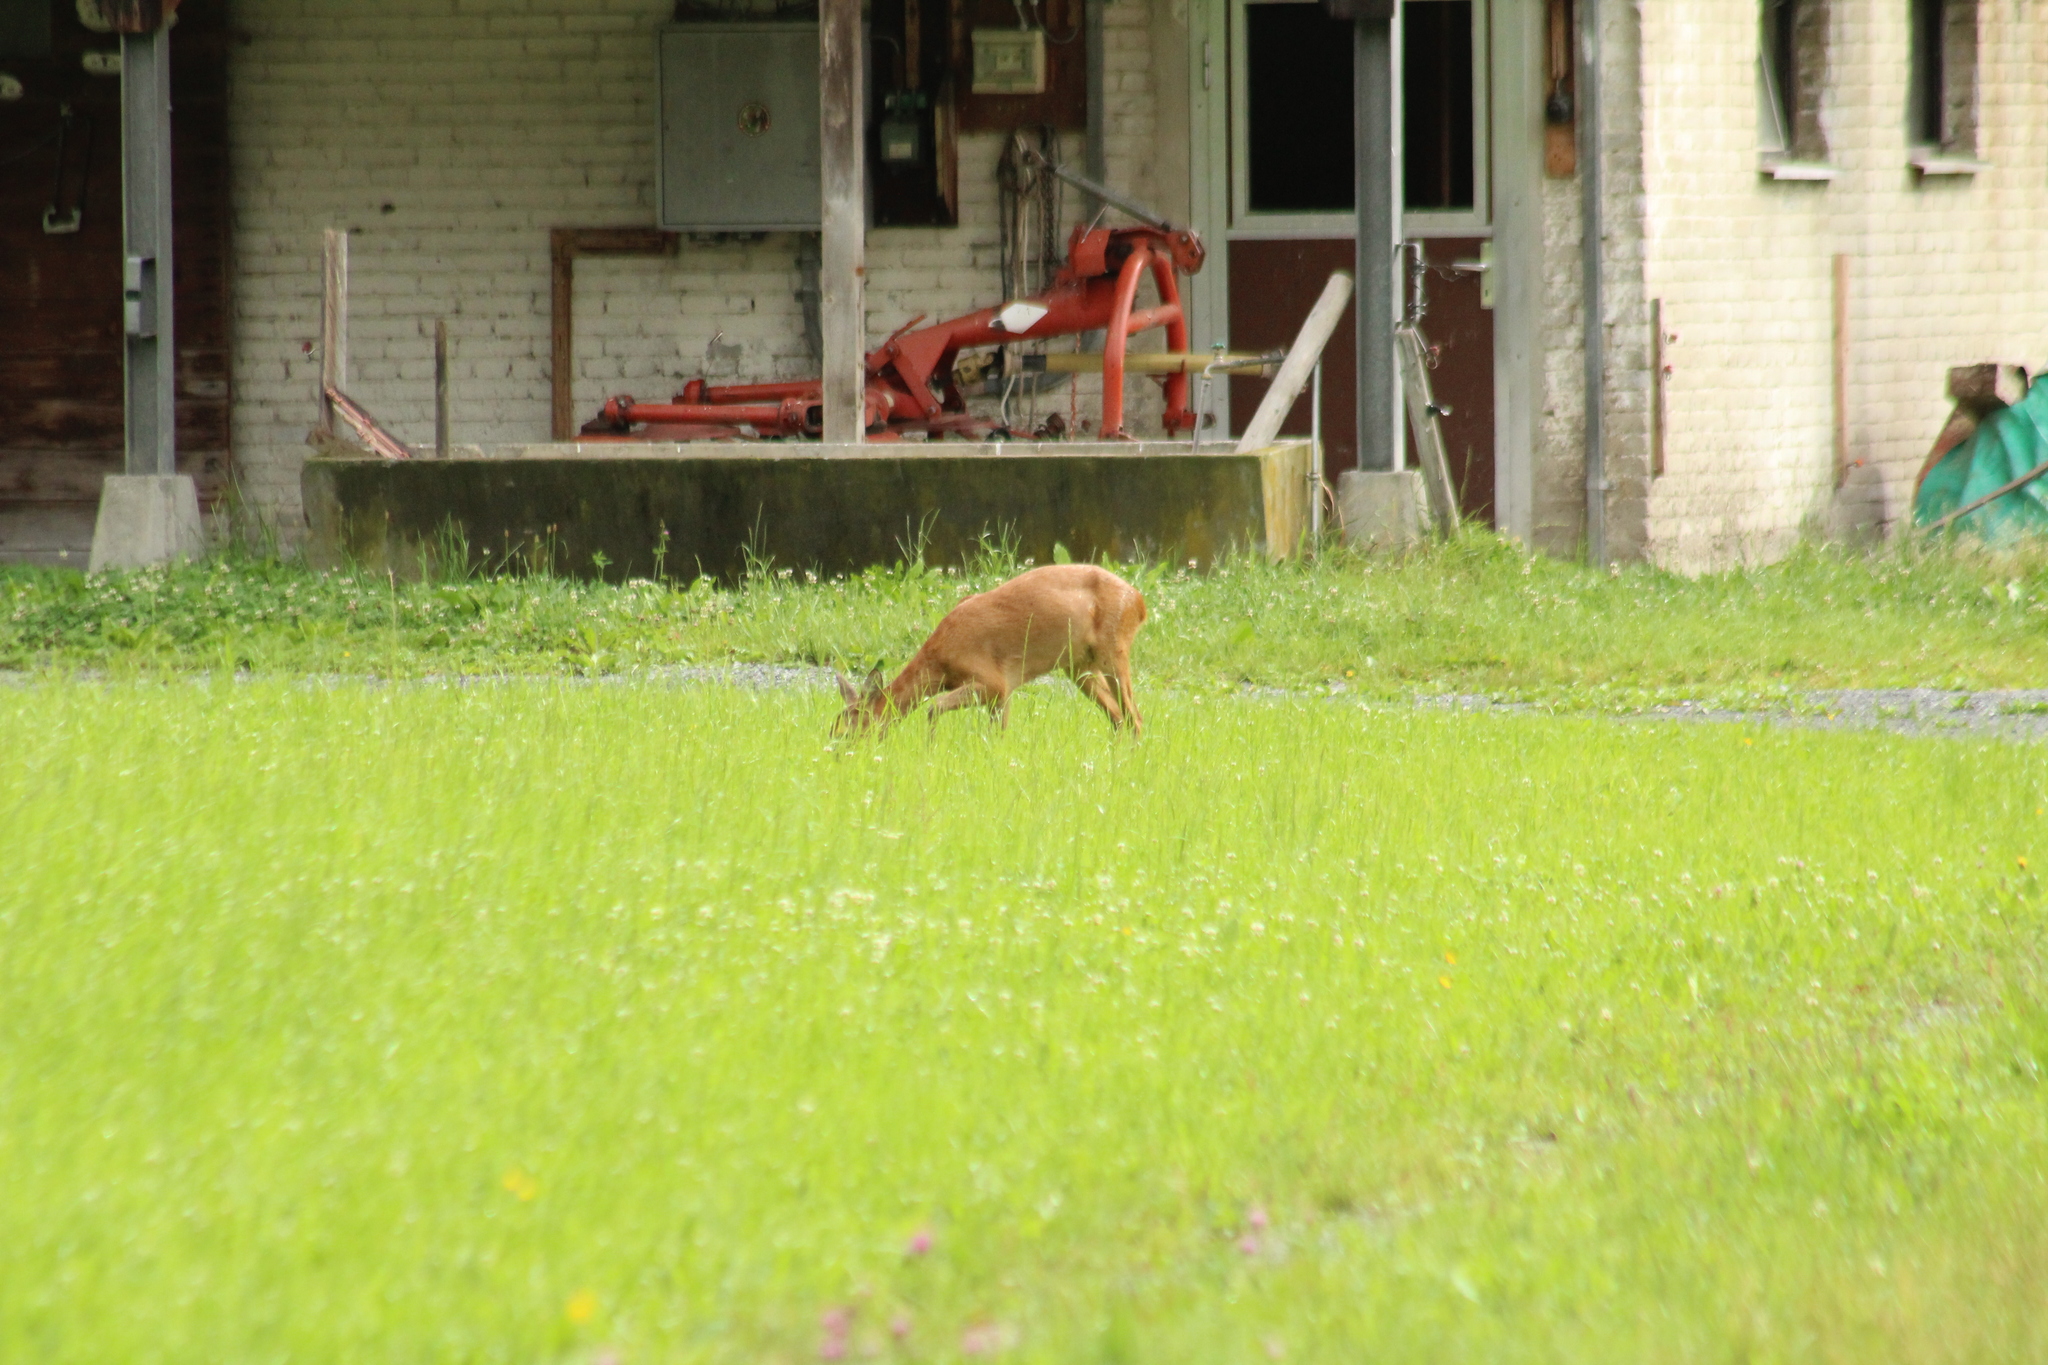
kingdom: Animalia
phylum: Chordata
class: Mammalia
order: Artiodactyla
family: Cervidae
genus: Capreolus
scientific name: Capreolus capreolus
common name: Western roe deer
